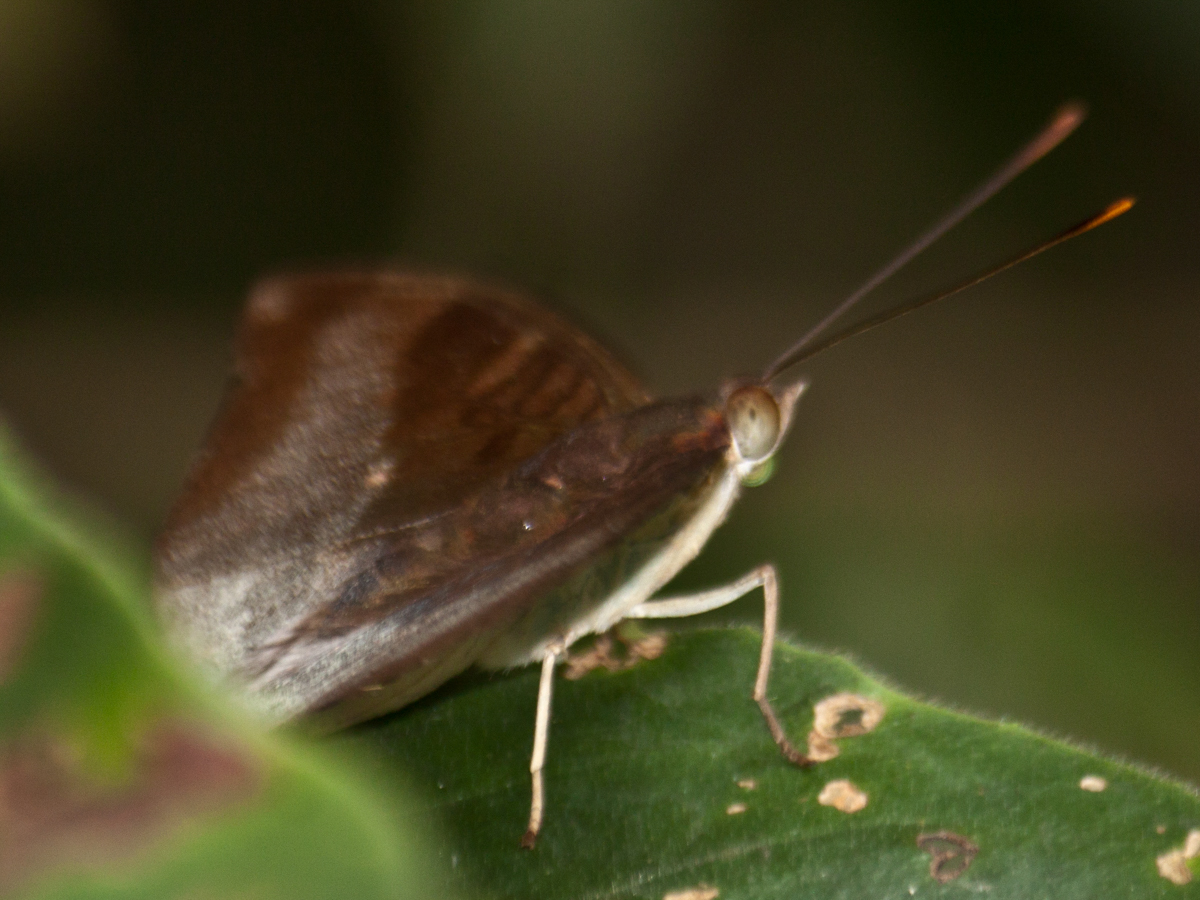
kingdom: Animalia
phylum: Arthropoda
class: Insecta
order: Lepidoptera
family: Nymphalidae
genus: Euthalia
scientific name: Euthalia monina
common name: Powdered baron
